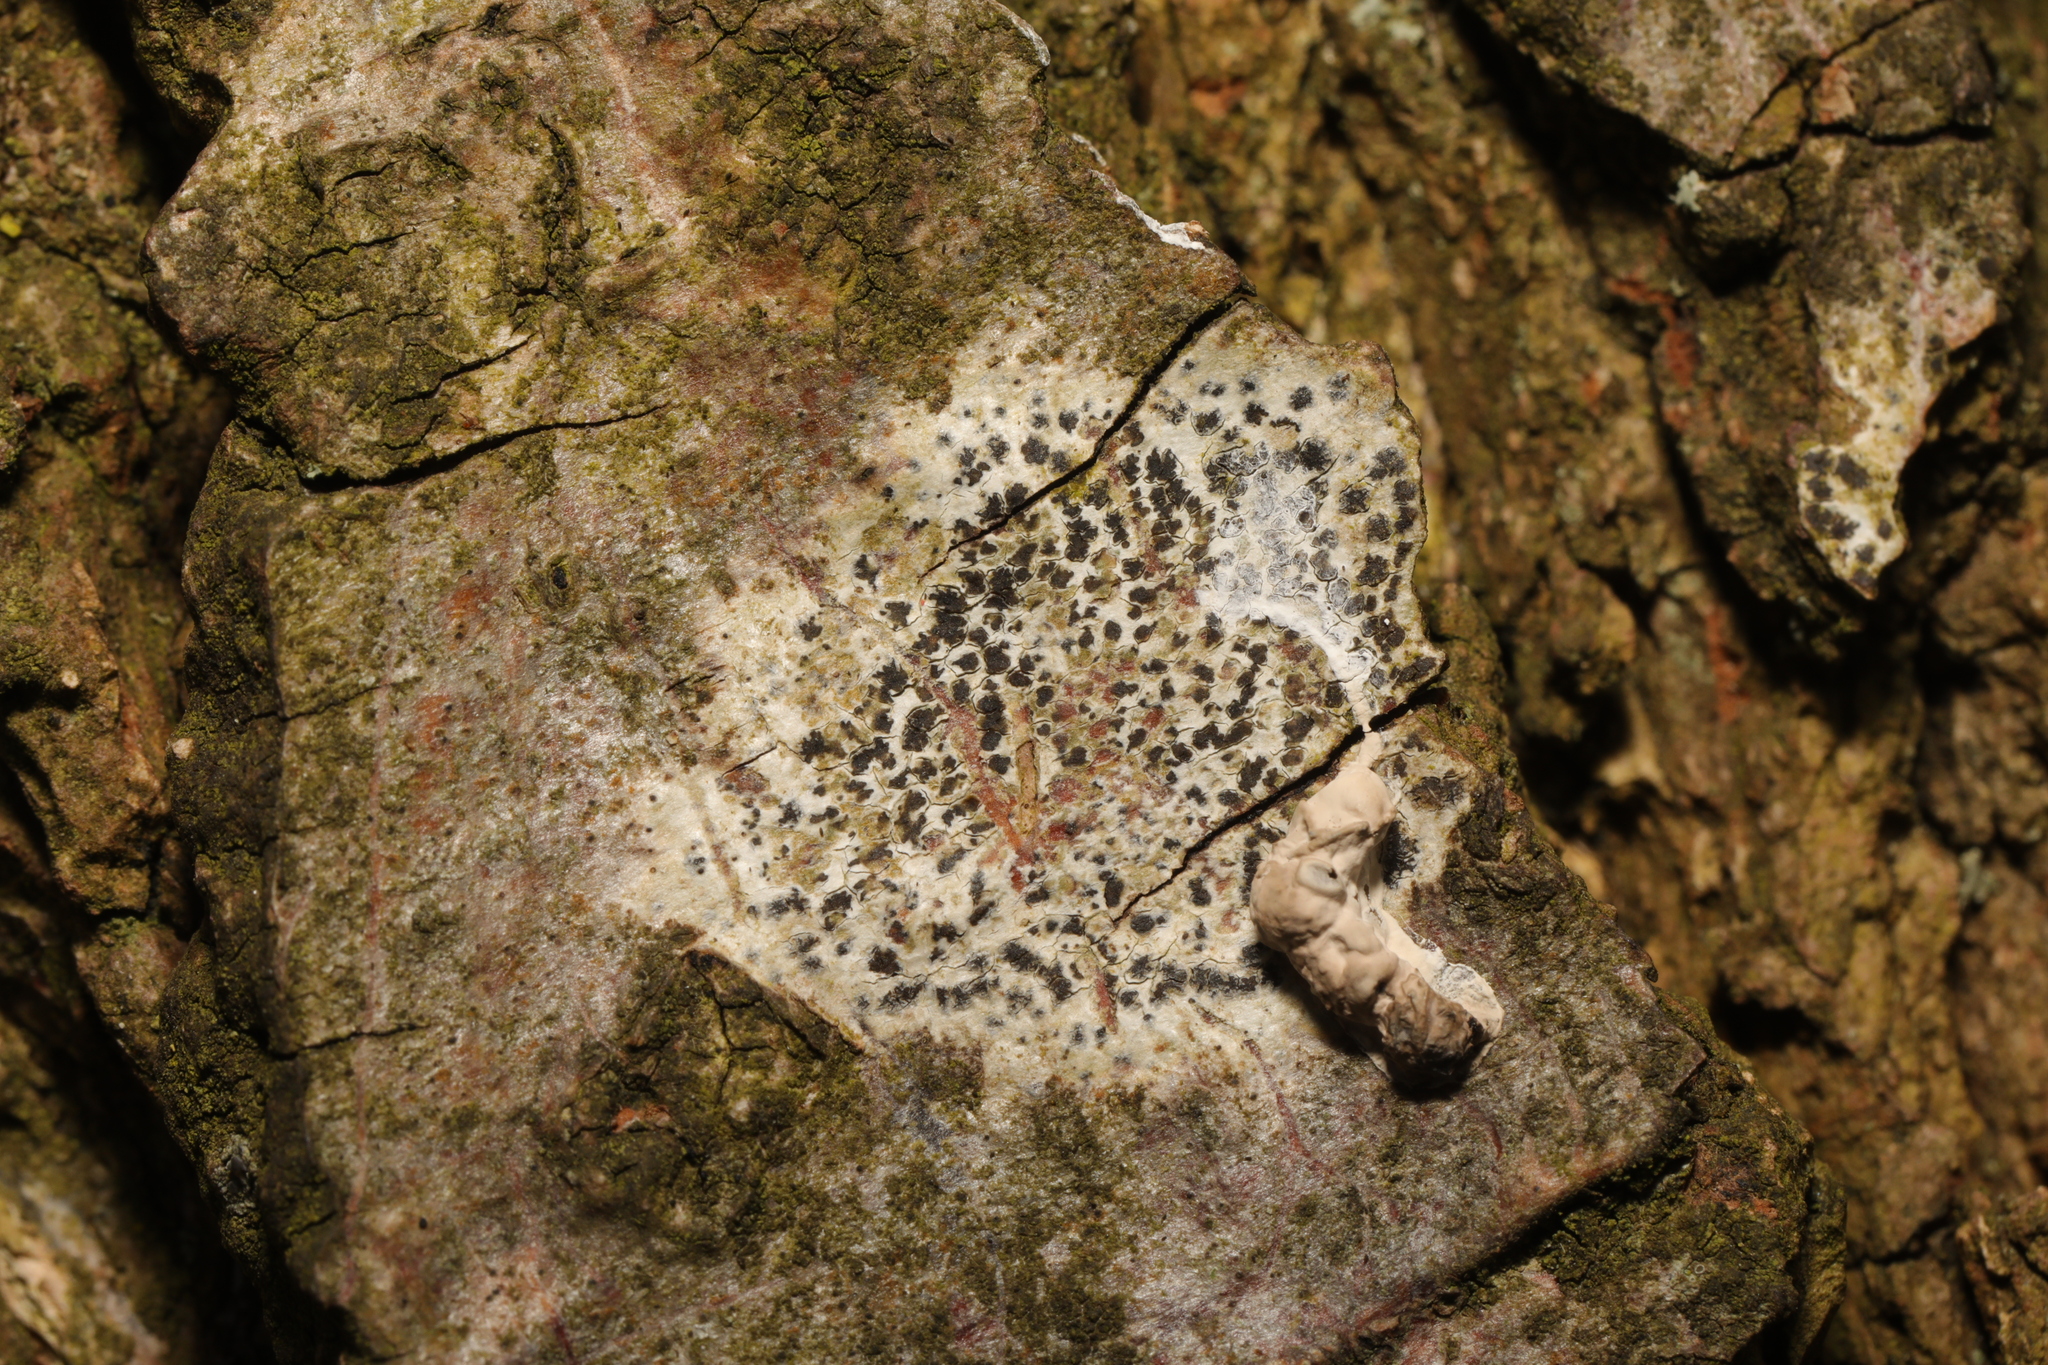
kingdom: Fungi
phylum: Ascomycota
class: Arthoniomycetes
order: Arthoniales
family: Arthoniaceae
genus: Arthonia
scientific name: Arthonia radiata
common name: Asterisk lichen
